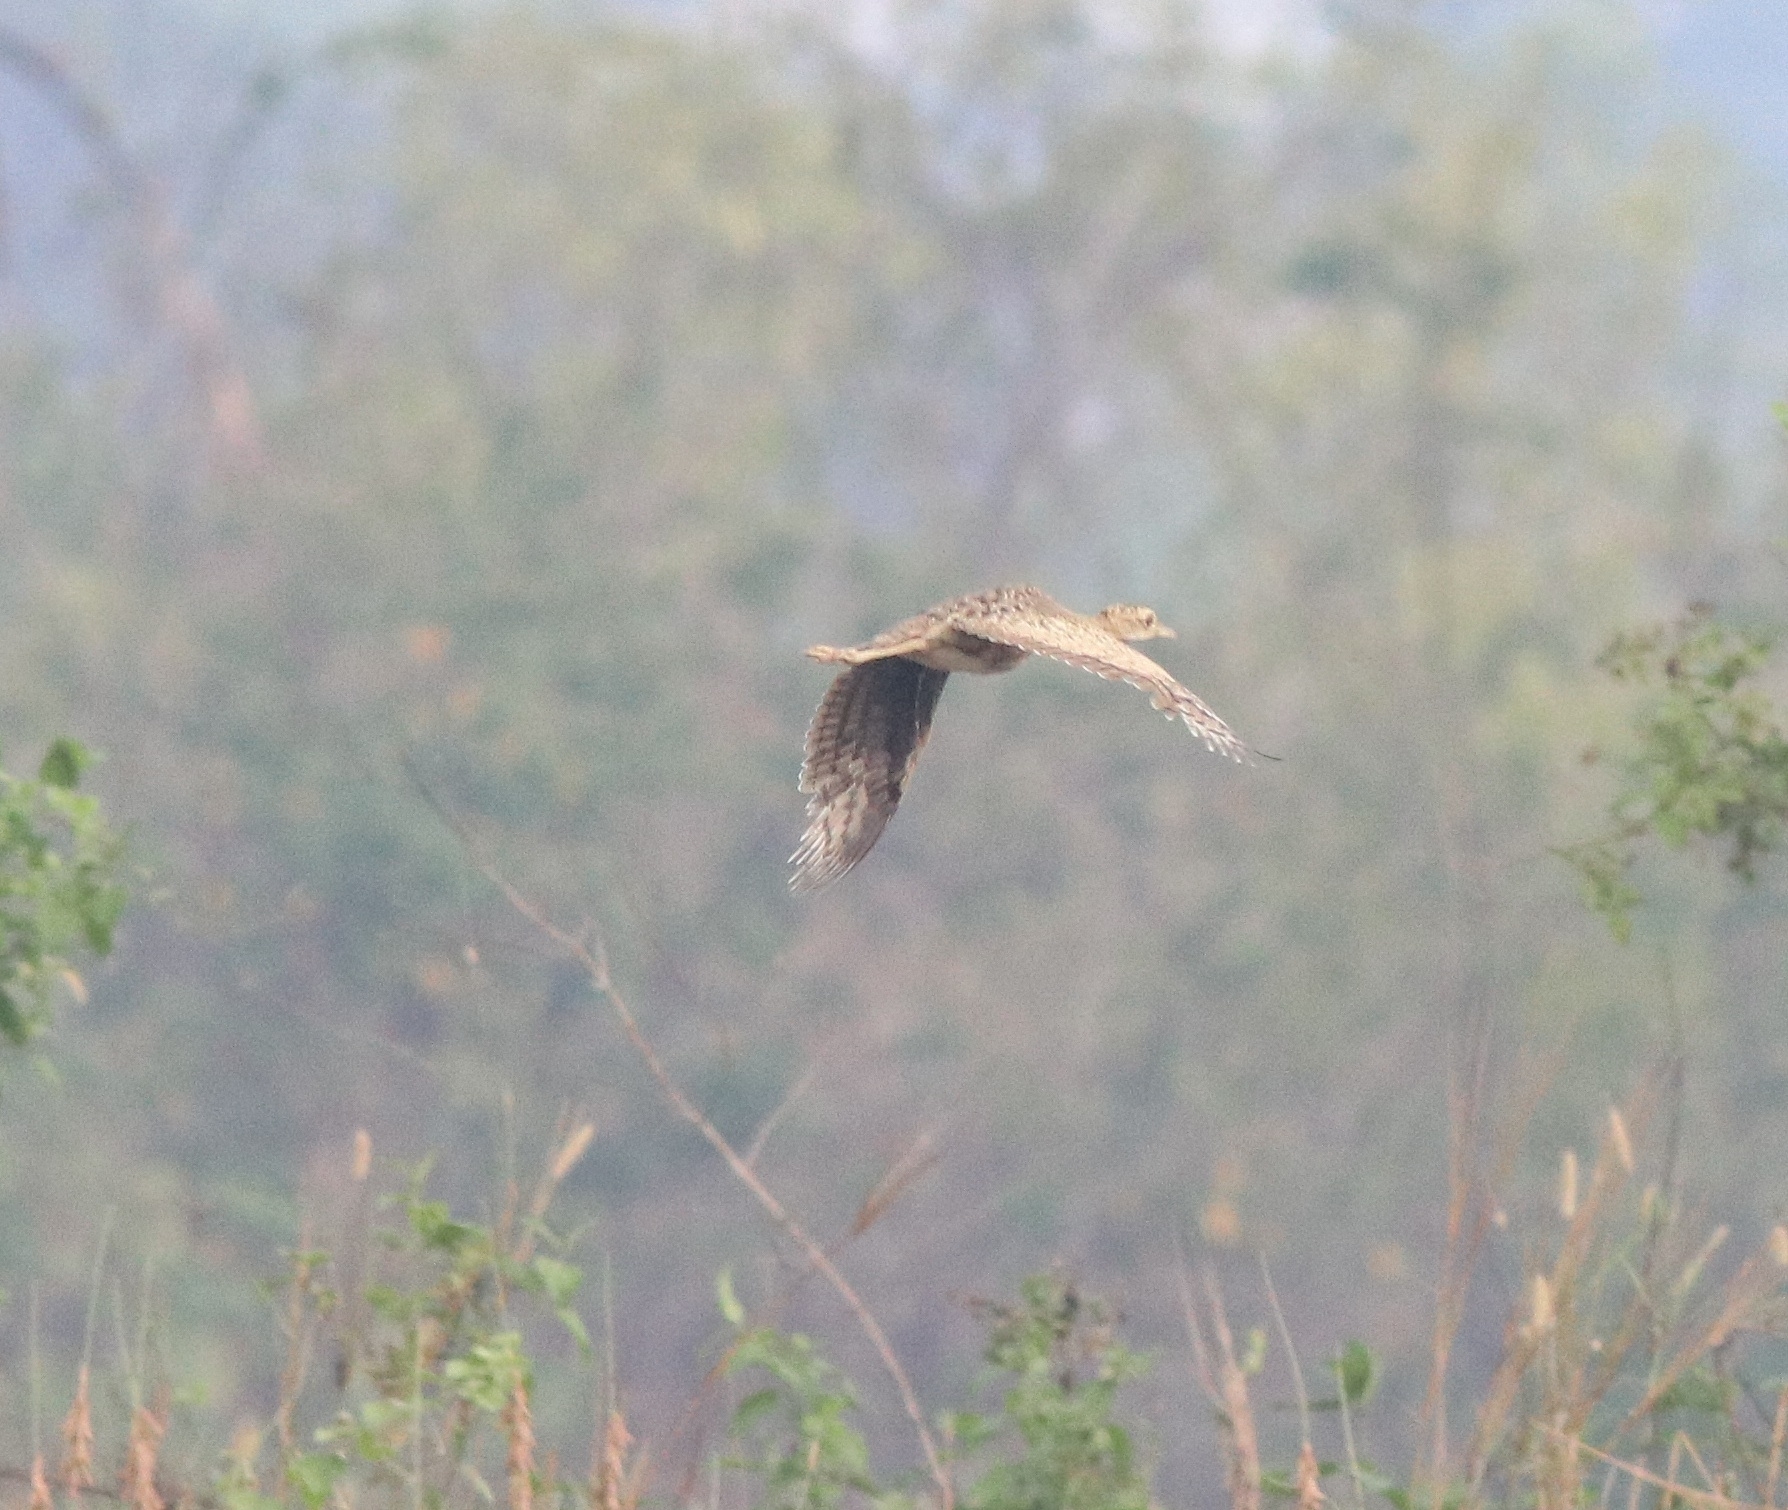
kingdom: Animalia
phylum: Chordata
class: Aves
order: Otidiformes
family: Otididae
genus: Sypheotides
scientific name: Sypheotides indicus
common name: Lesser florican
